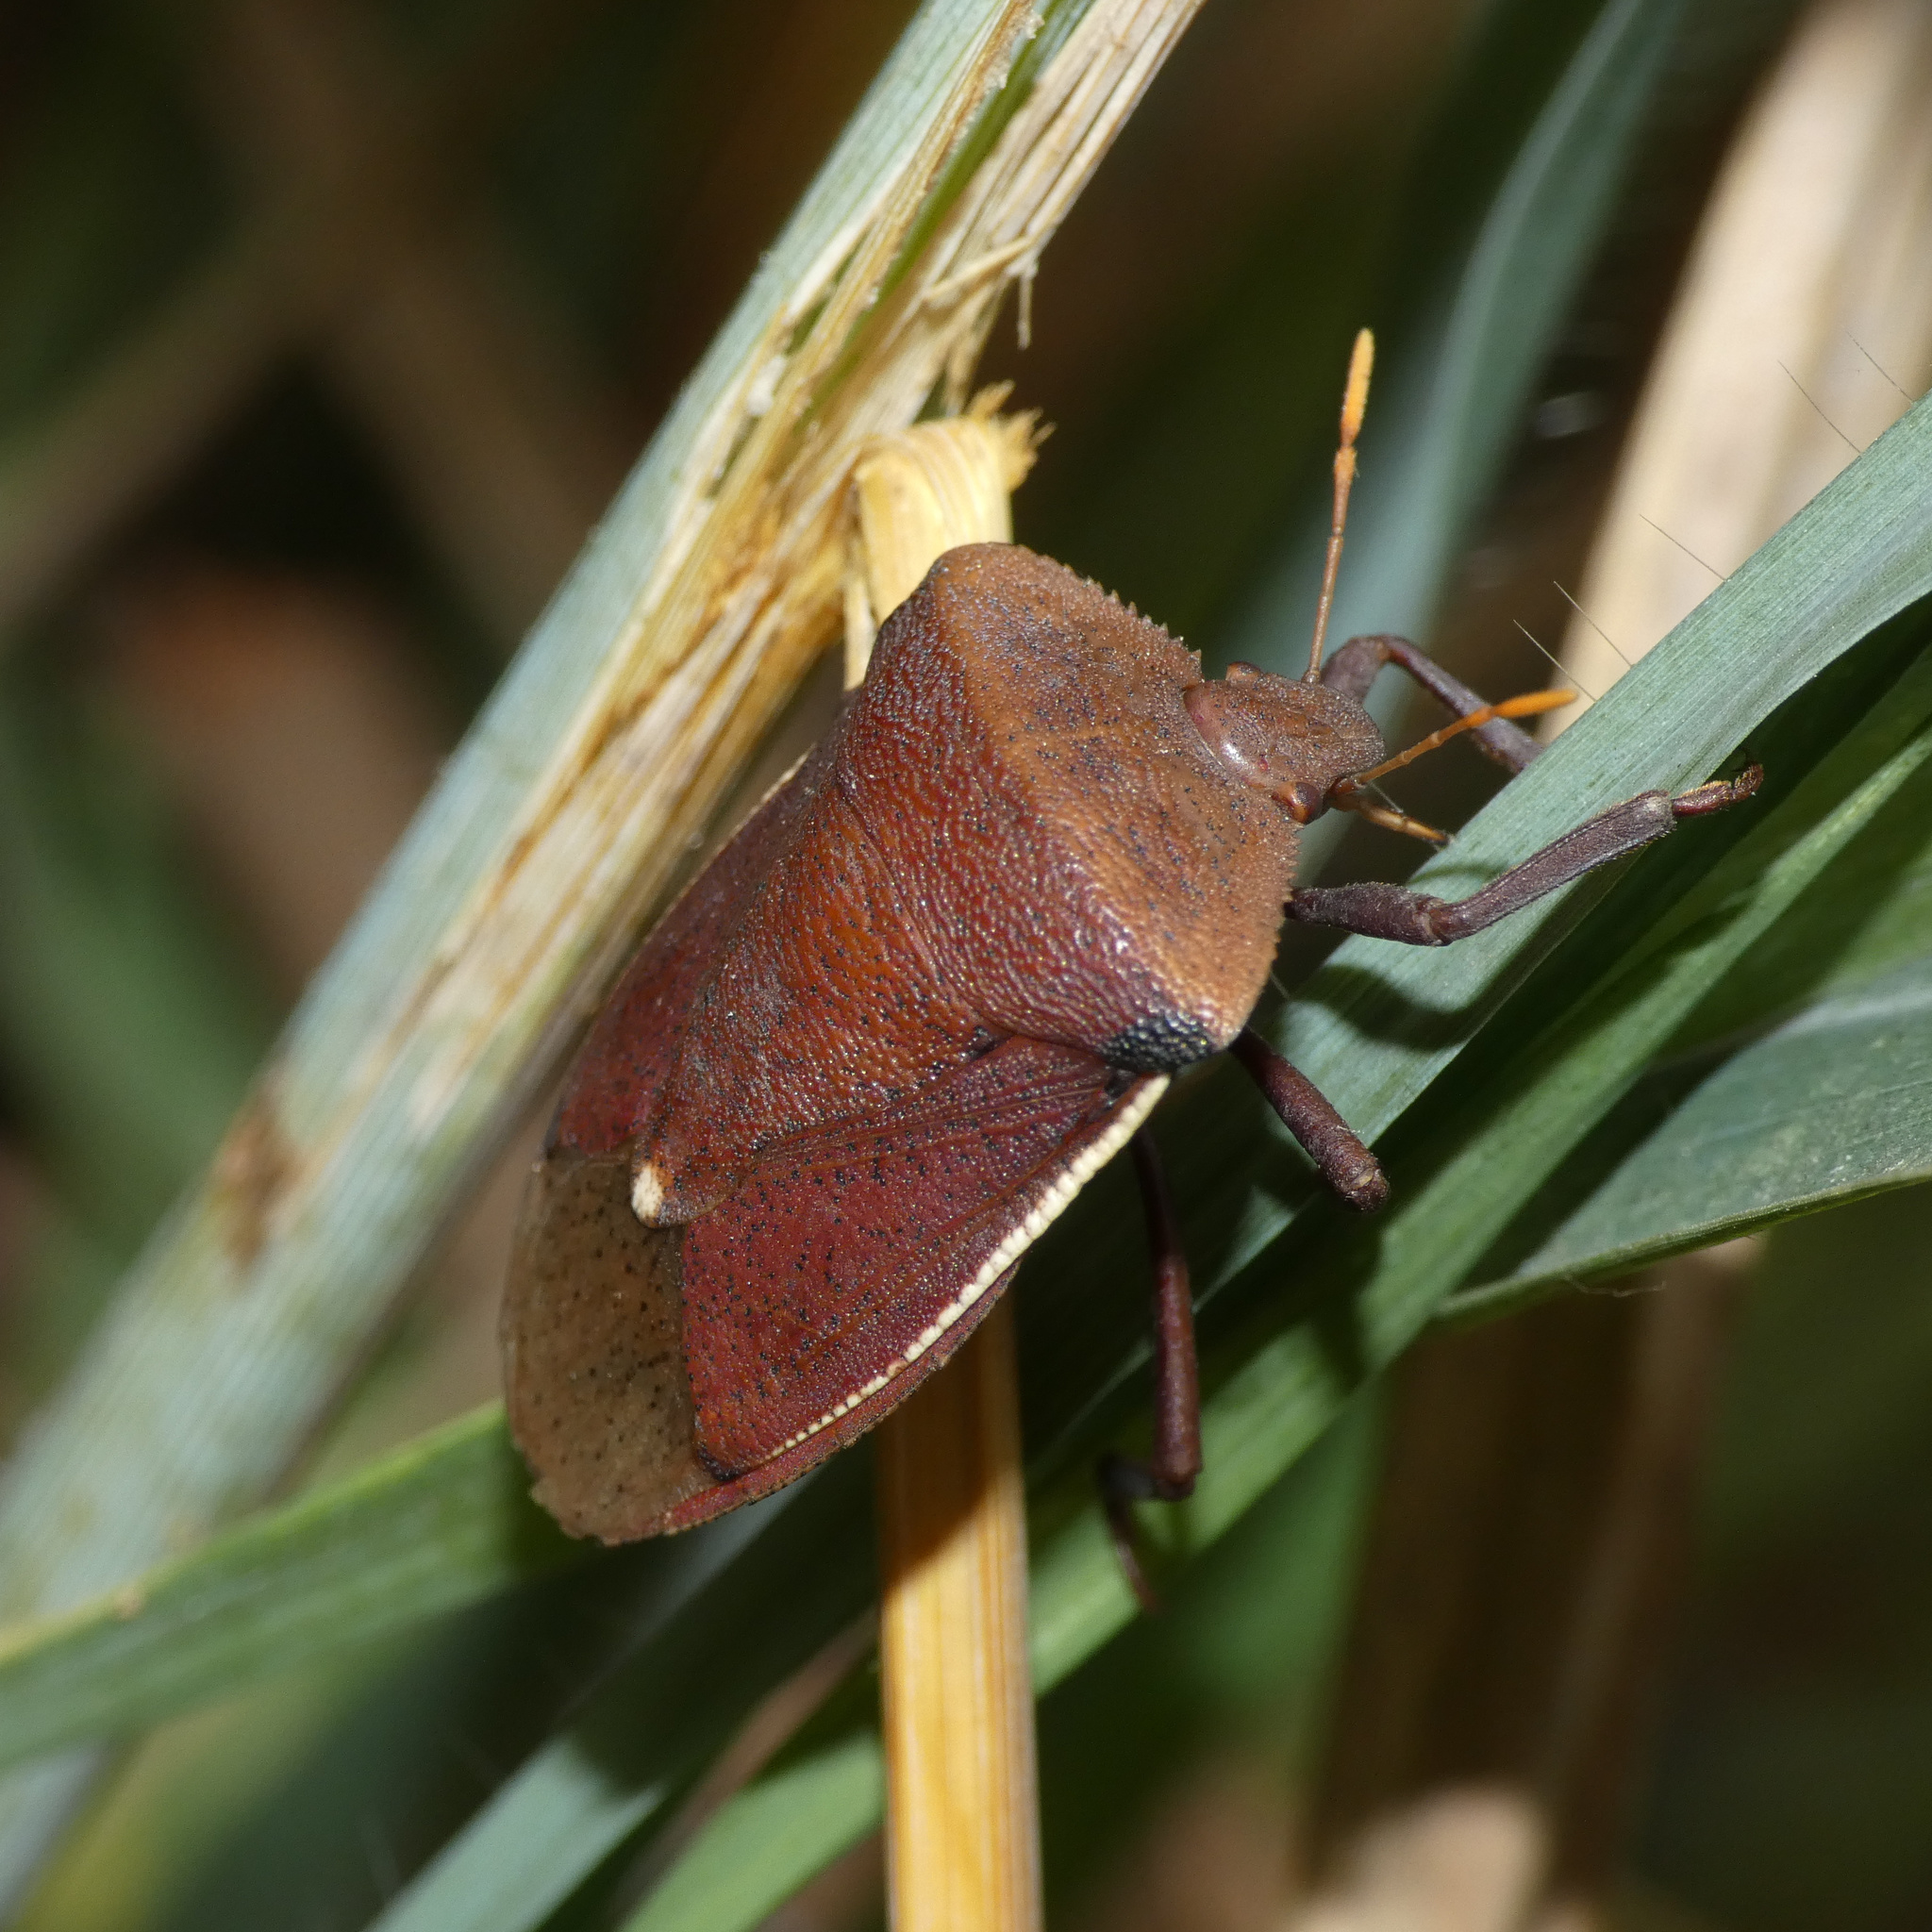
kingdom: Animalia
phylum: Arthropoda
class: Insecta
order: Hemiptera
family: Pentatomidae
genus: Basicryptus
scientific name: Basicryptus costalis
